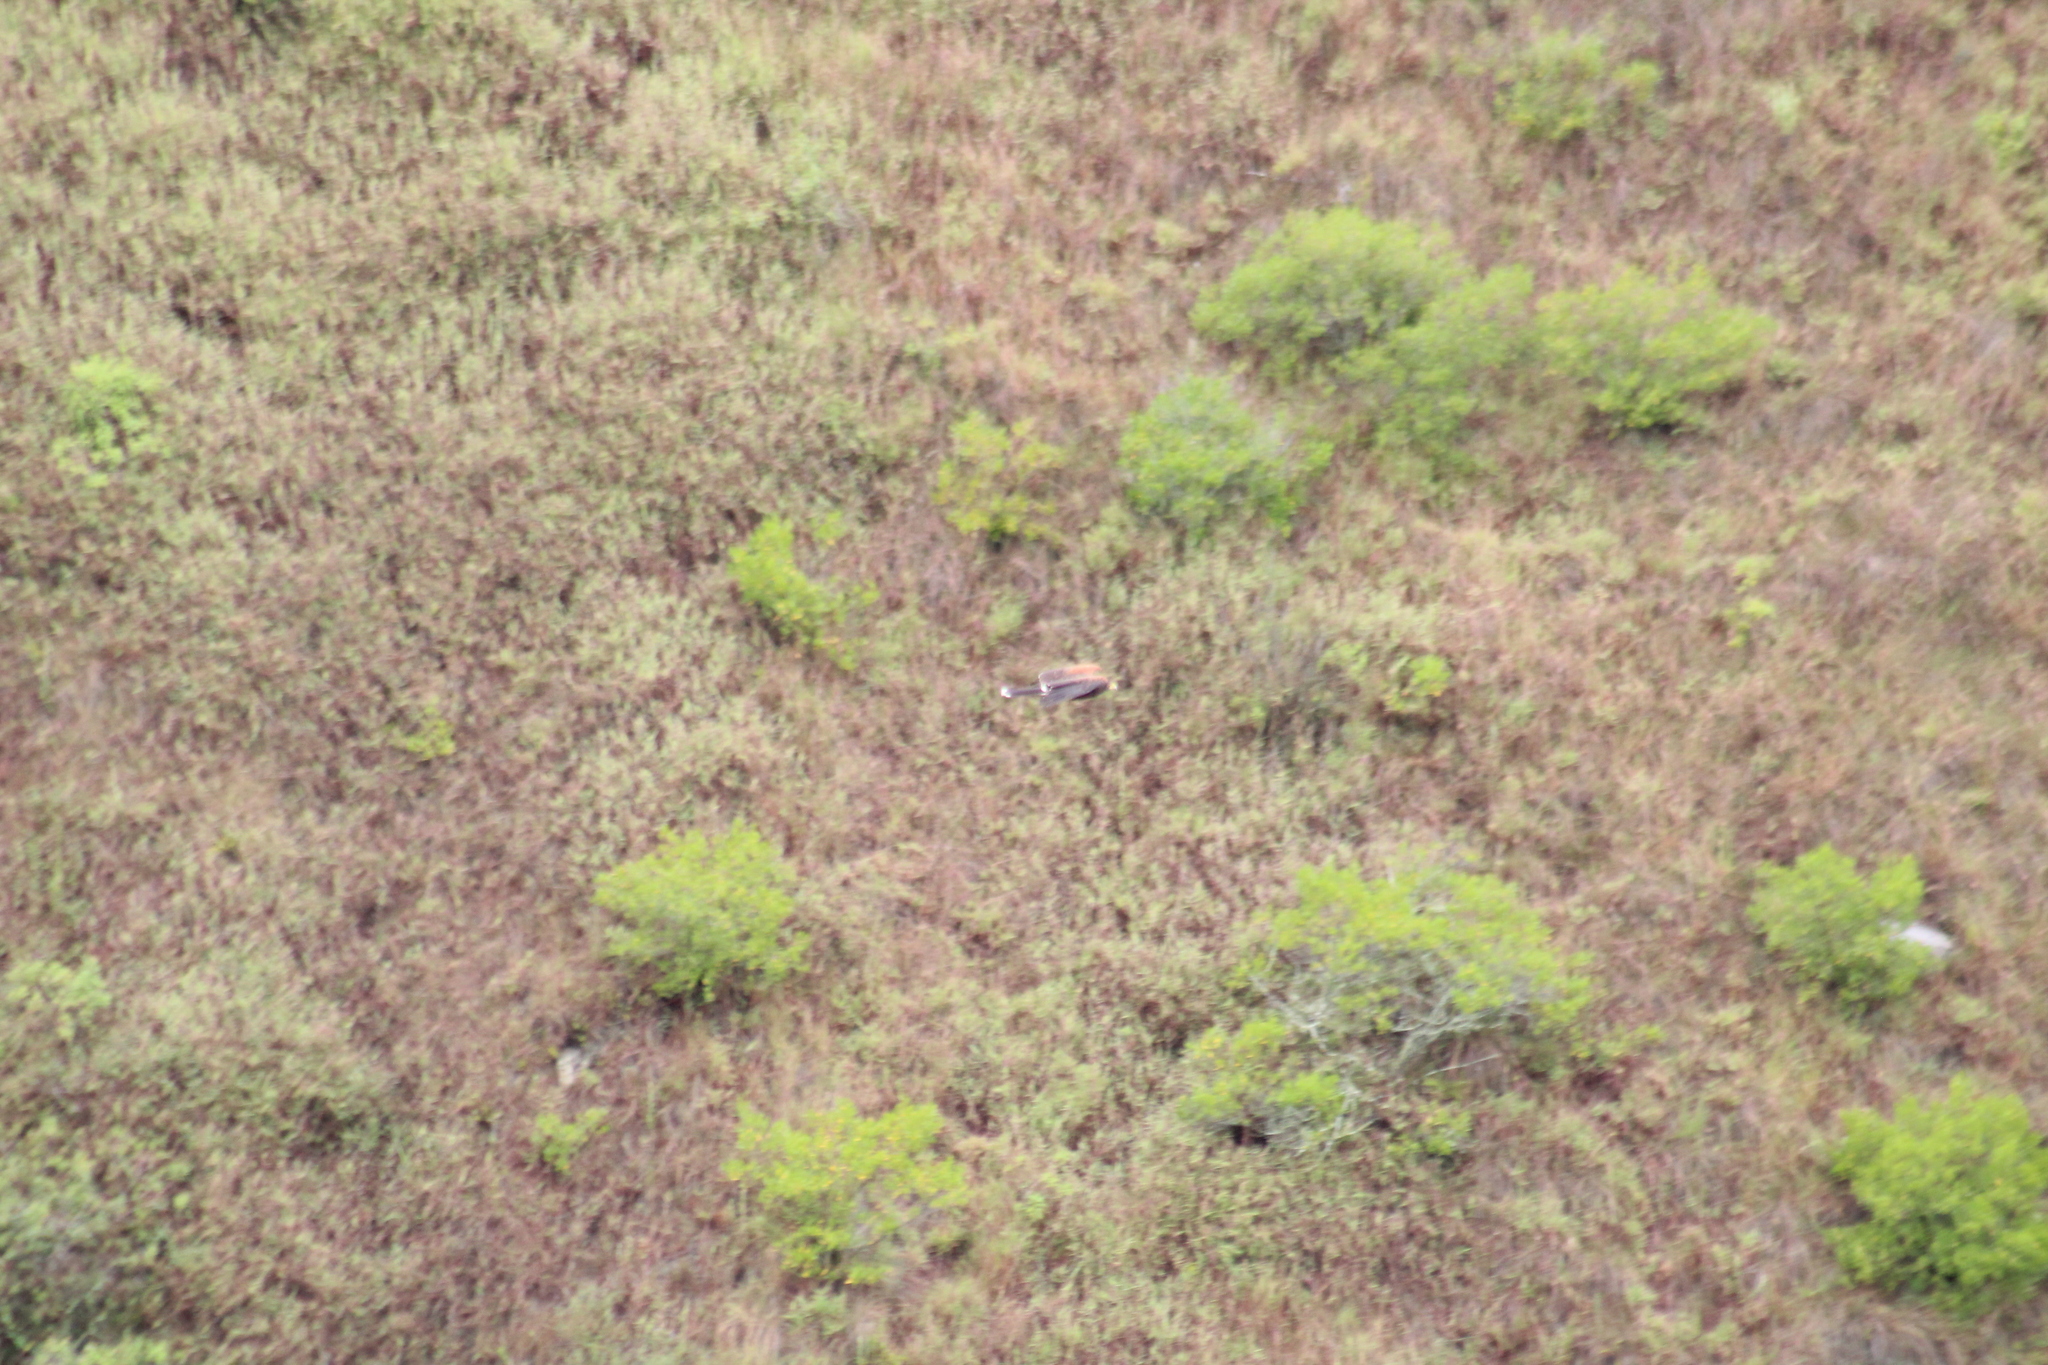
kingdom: Animalia
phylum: Chordata
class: Aves
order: Accipitriformes
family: Accipitridae
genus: Parabuteo
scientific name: Parabuteo unicinctus
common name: Harris's hawk
